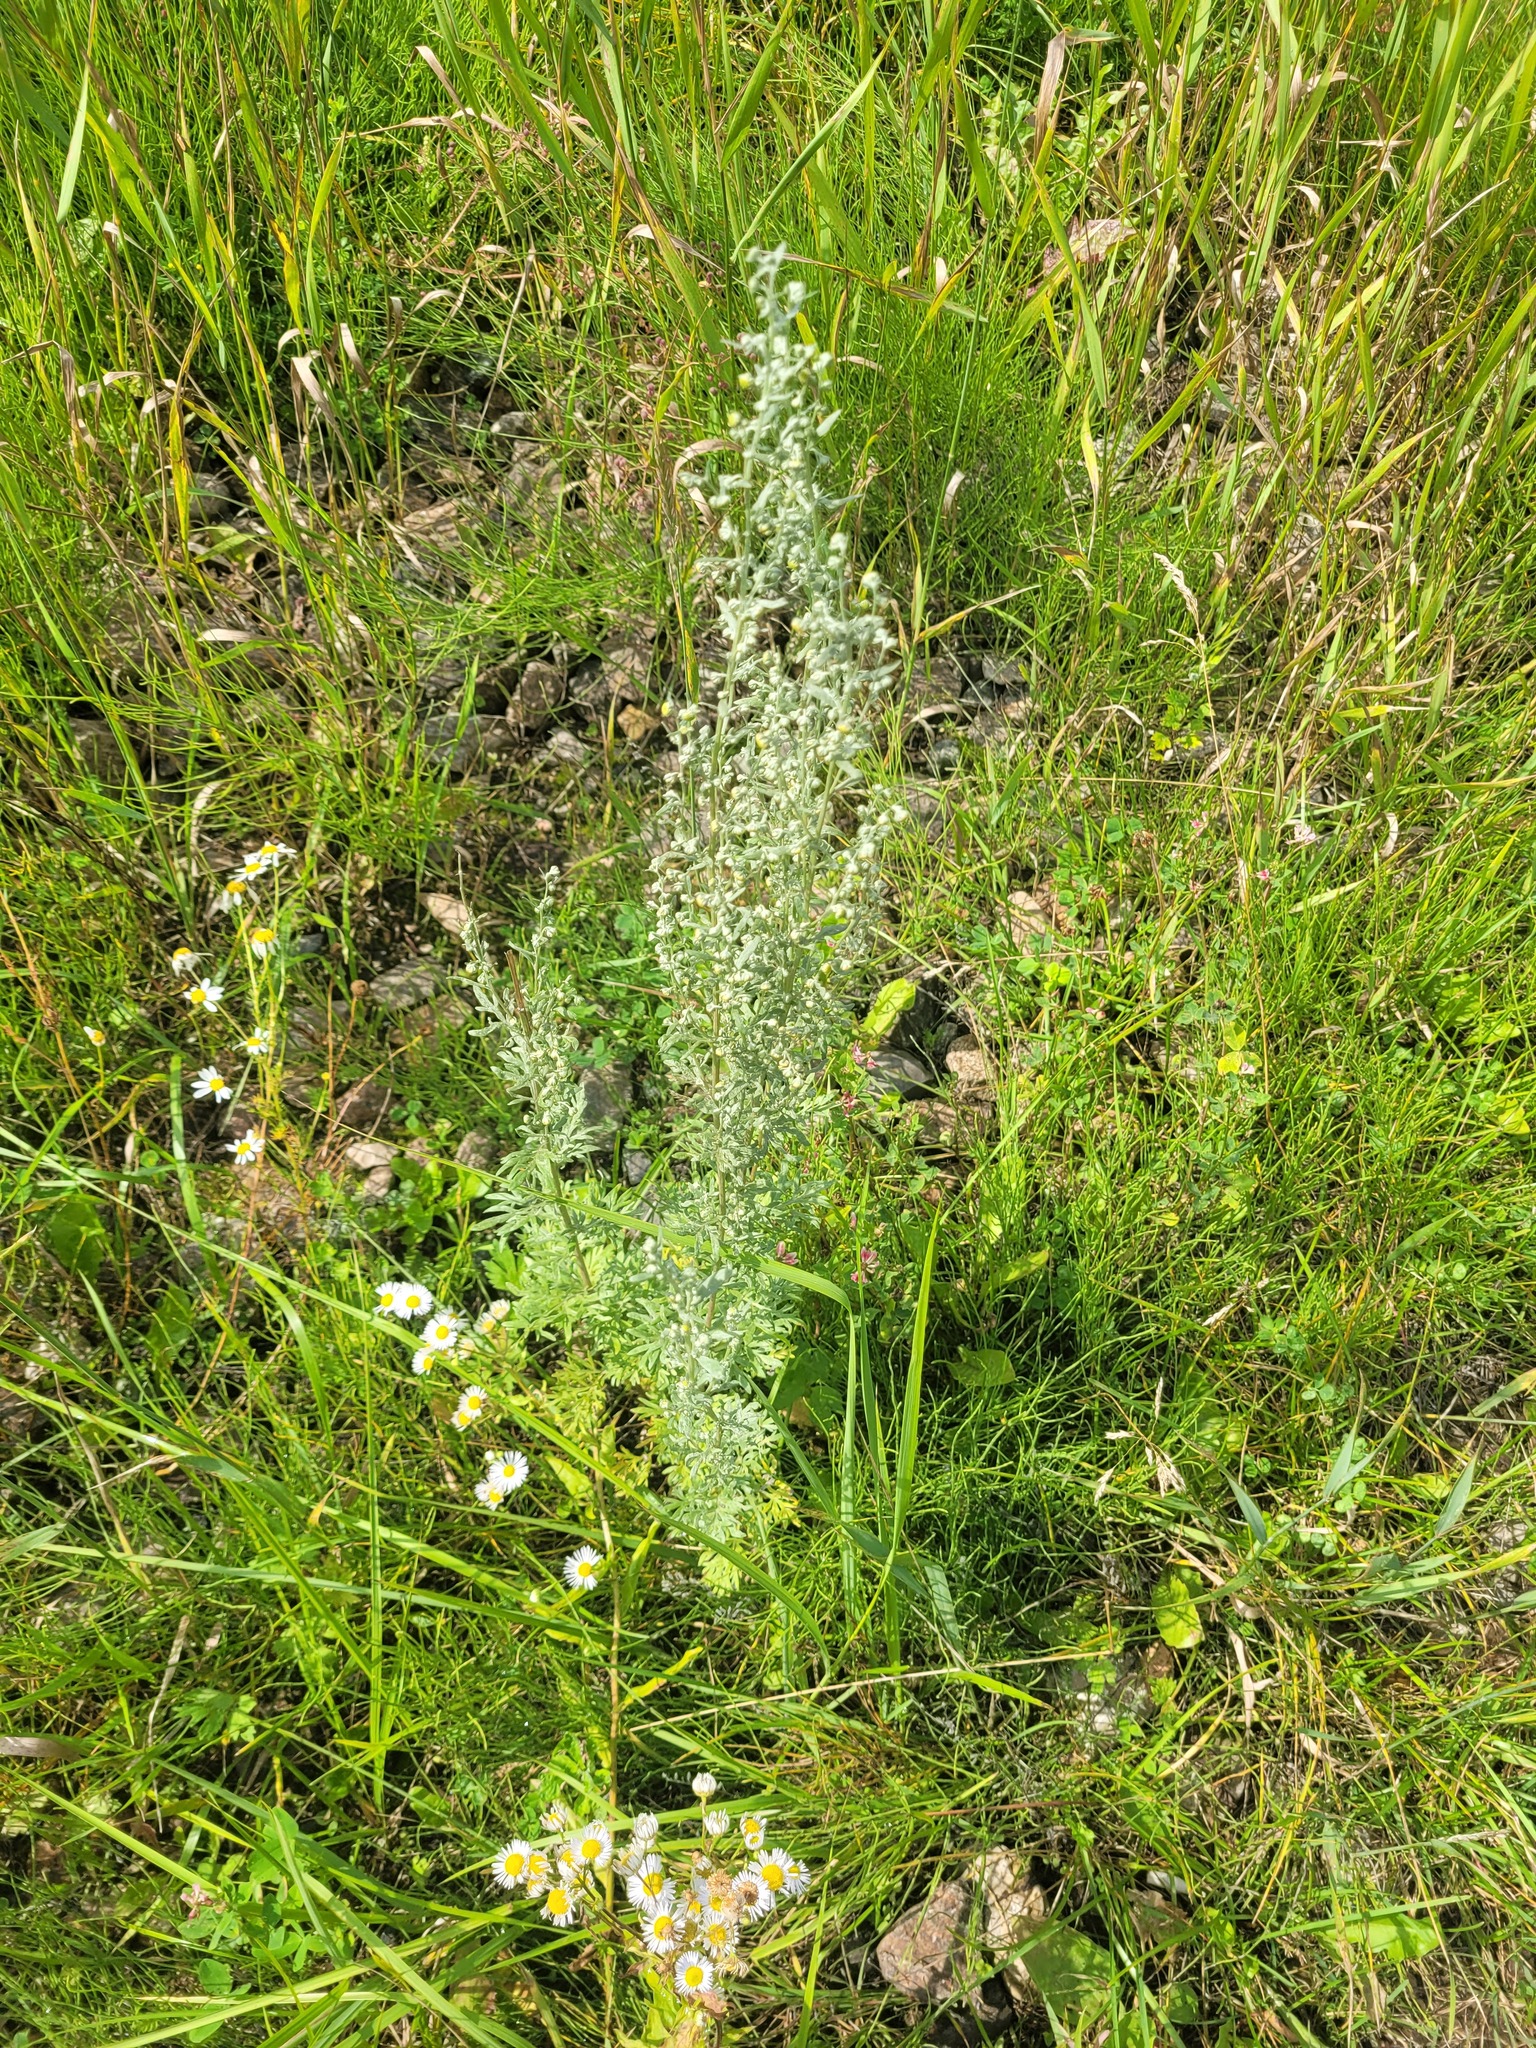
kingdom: Plantae
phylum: Tracheophyta
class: Magnoliopsida
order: Asterales
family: Asteraceae
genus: Artemisia
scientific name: Artemisia absinthium
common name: Wormwood
